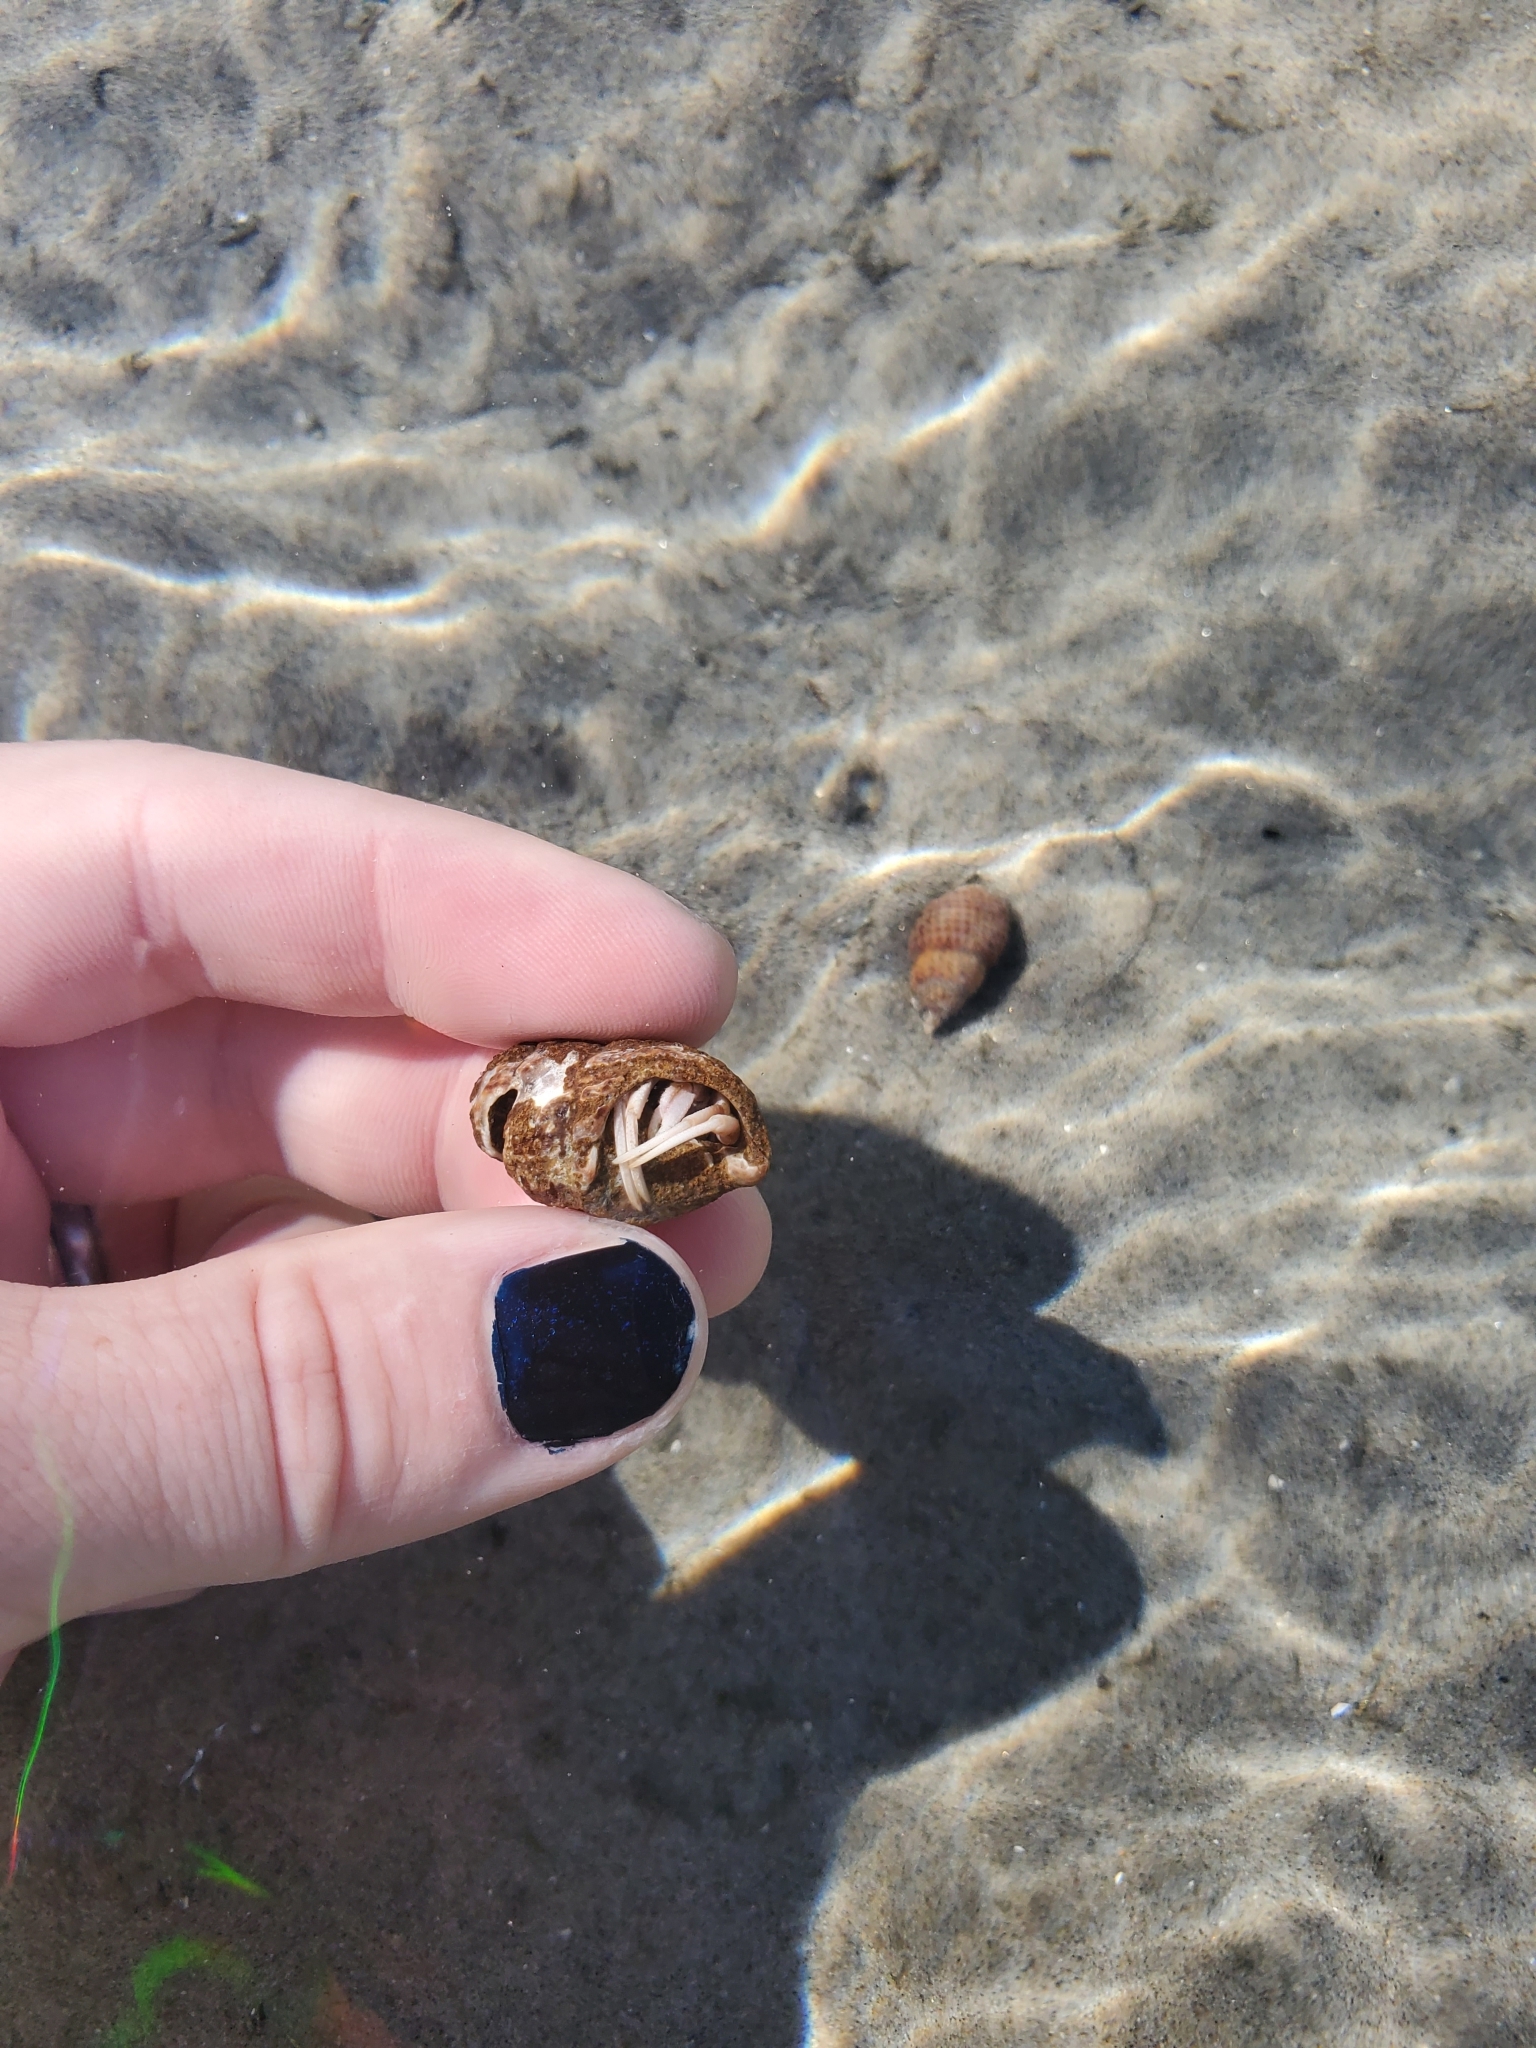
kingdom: Animalia
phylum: Arthropoda
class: Malacostraca
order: Decapoda
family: Paguridae
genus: Pagurus
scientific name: Pagurus longicarpus
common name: Long-armed hermit crab
